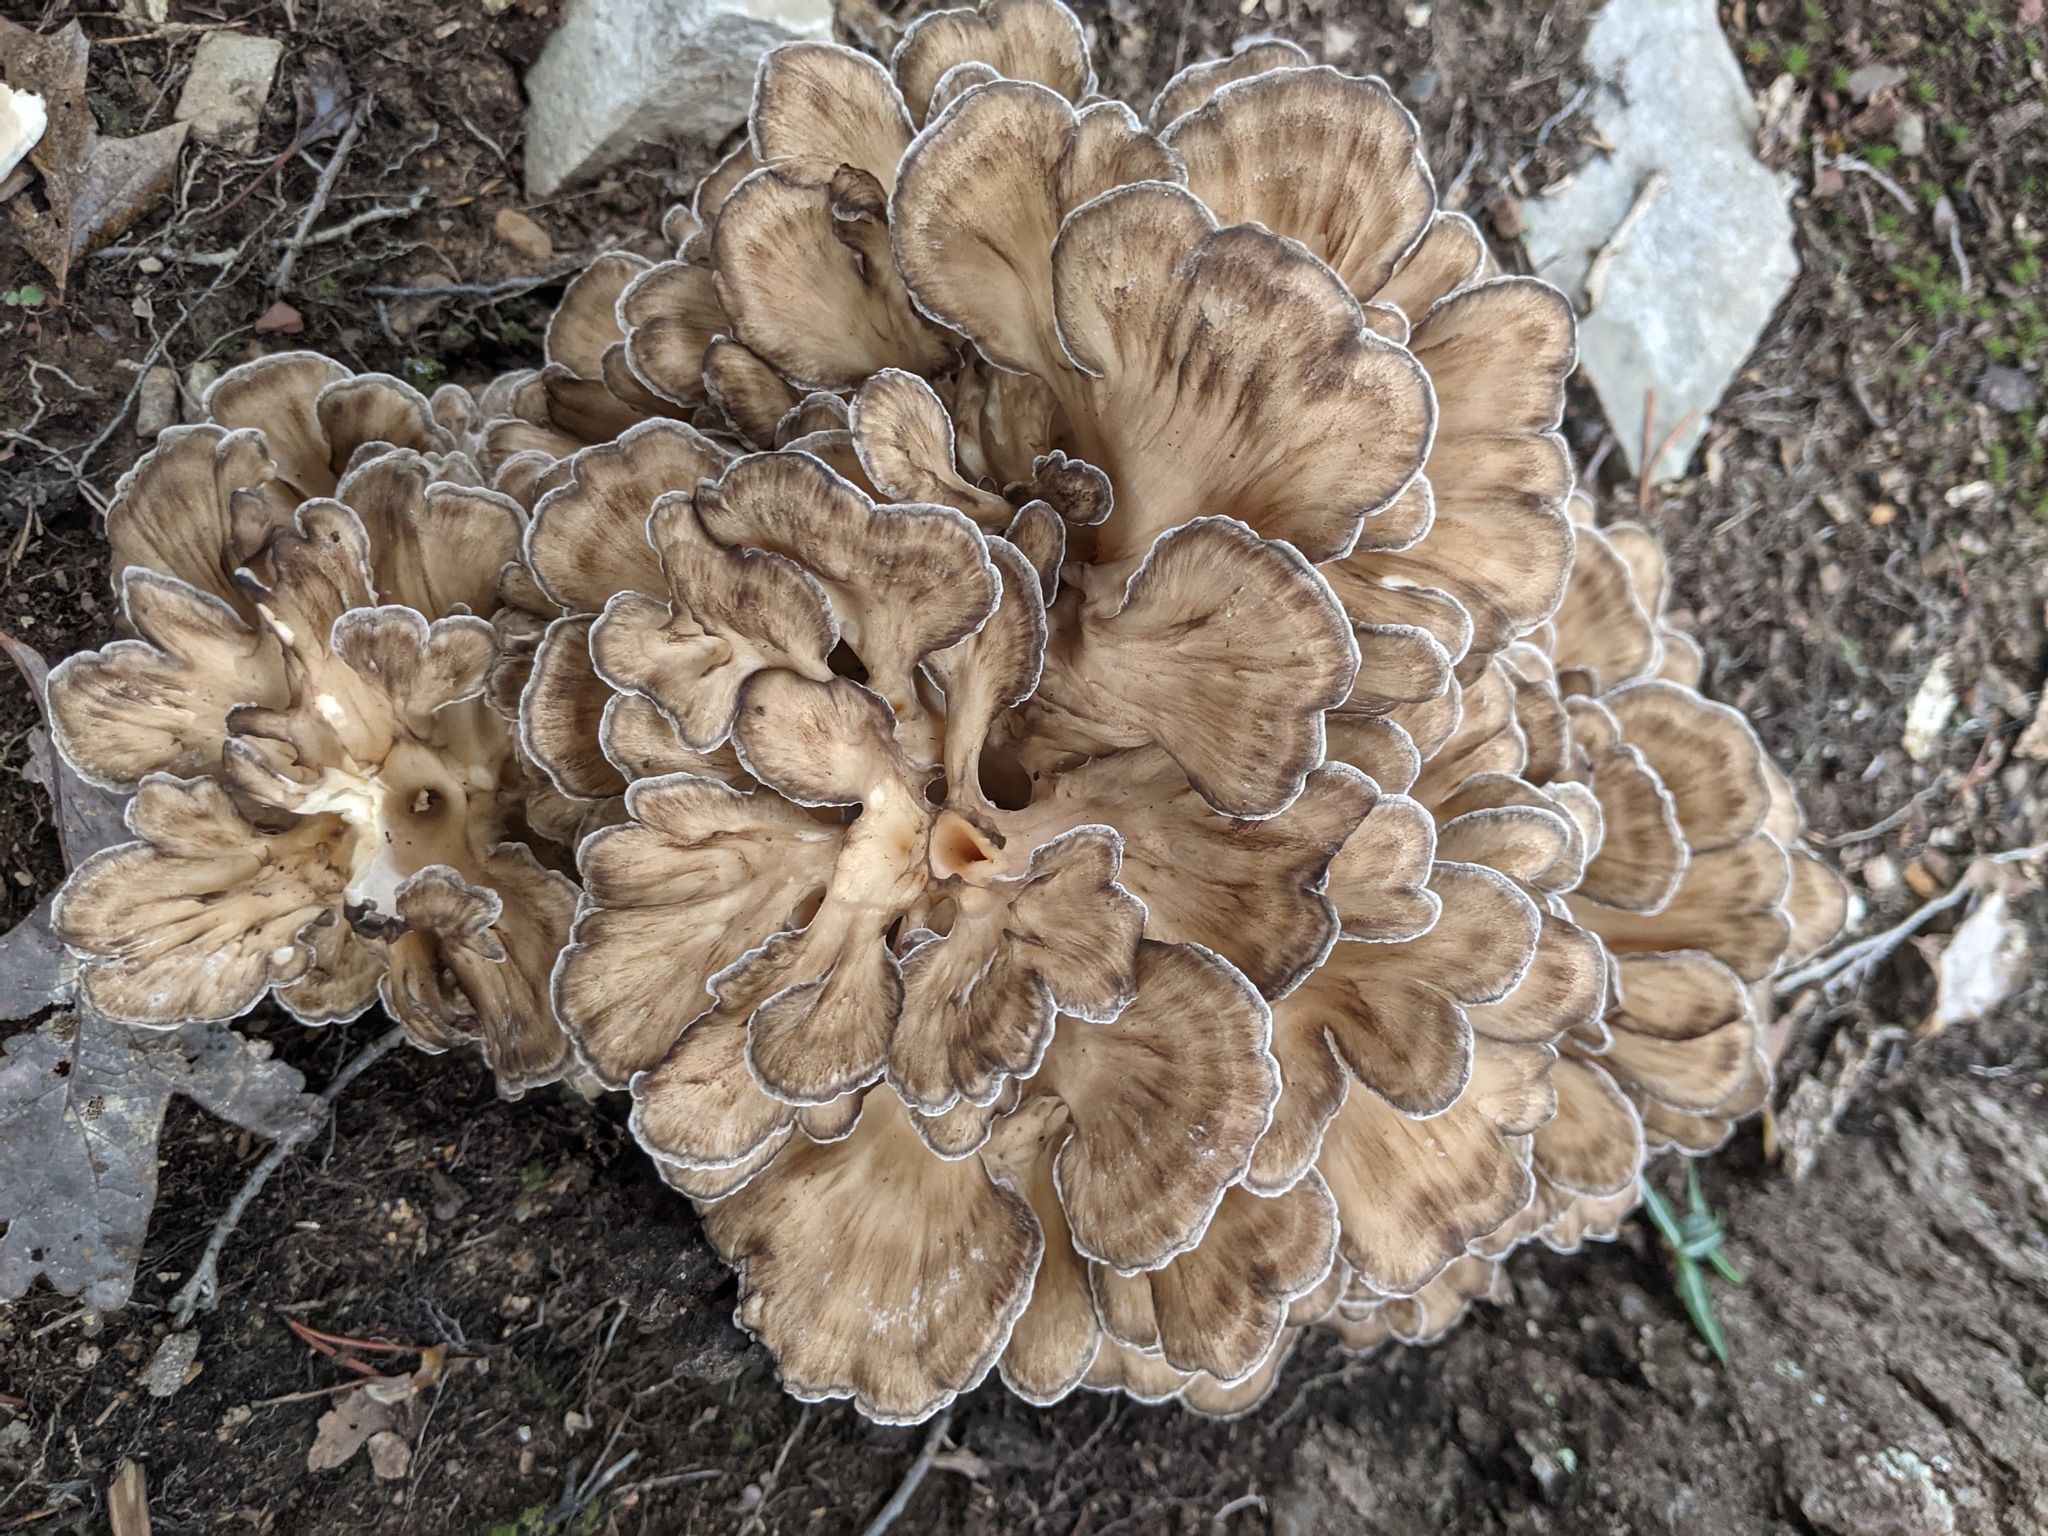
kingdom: Fungi
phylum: Basidiomycota
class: Agaricomycetes
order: Polyporales
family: Grifolaceae
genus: Grifola
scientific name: Grifola frondosa
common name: Hen of the woods
